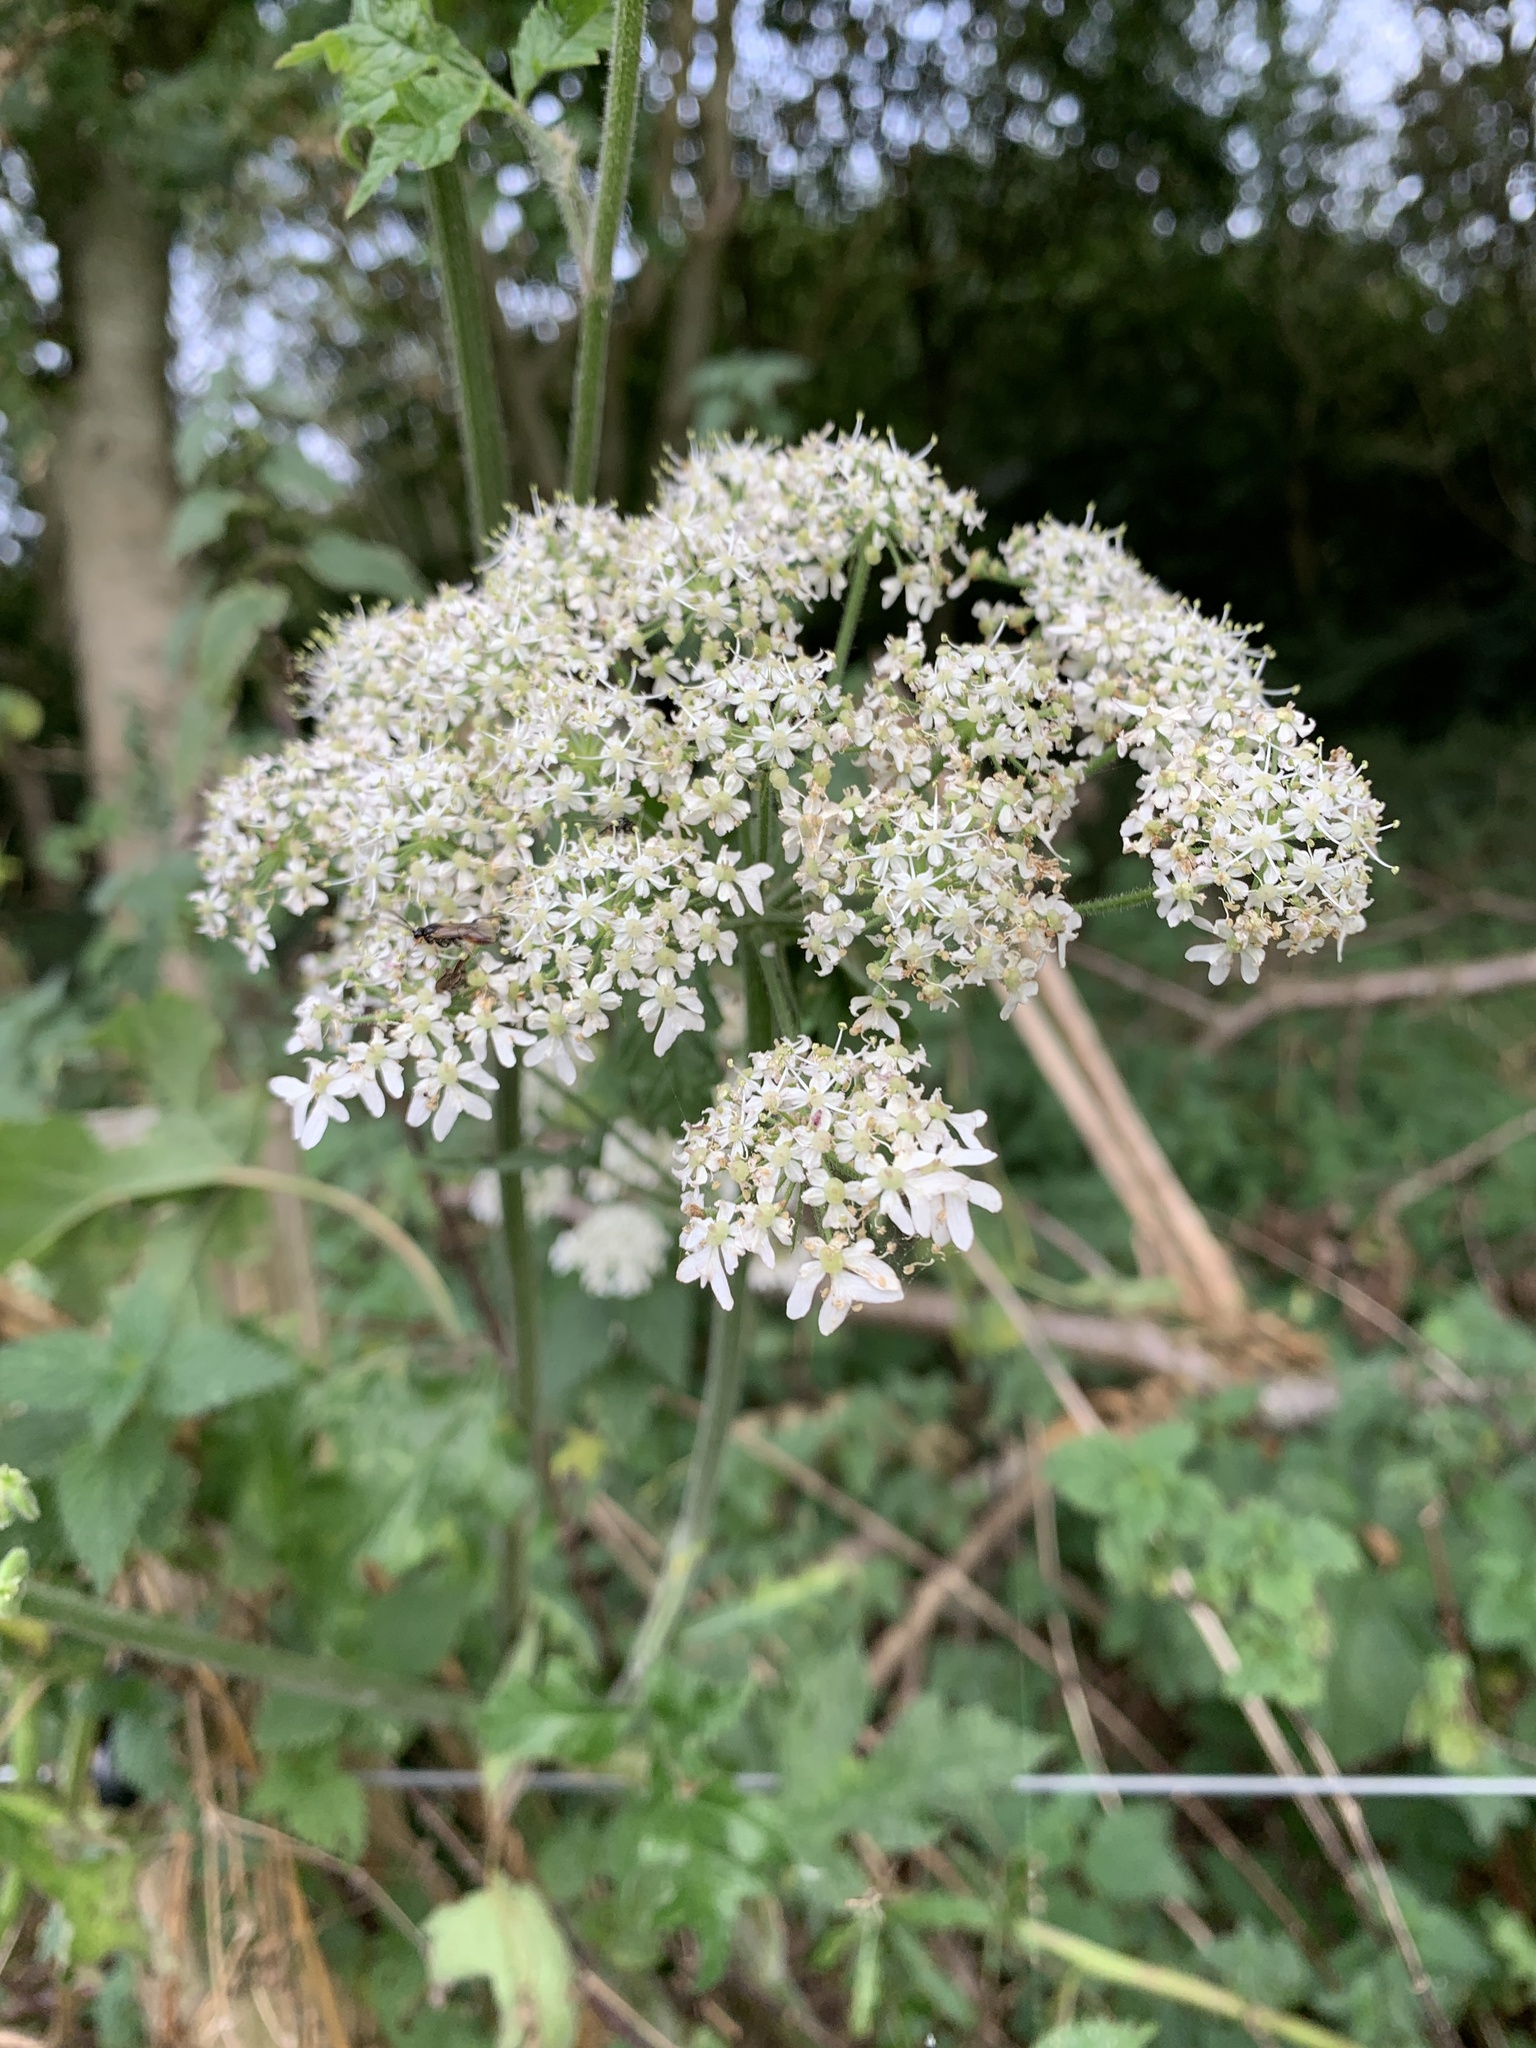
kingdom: Plantae
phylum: Tracheophyta
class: Magnoliopsida
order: Apiales
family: Apiaceae
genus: Heracleum
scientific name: Heracleum sphondylium
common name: Hogweed
